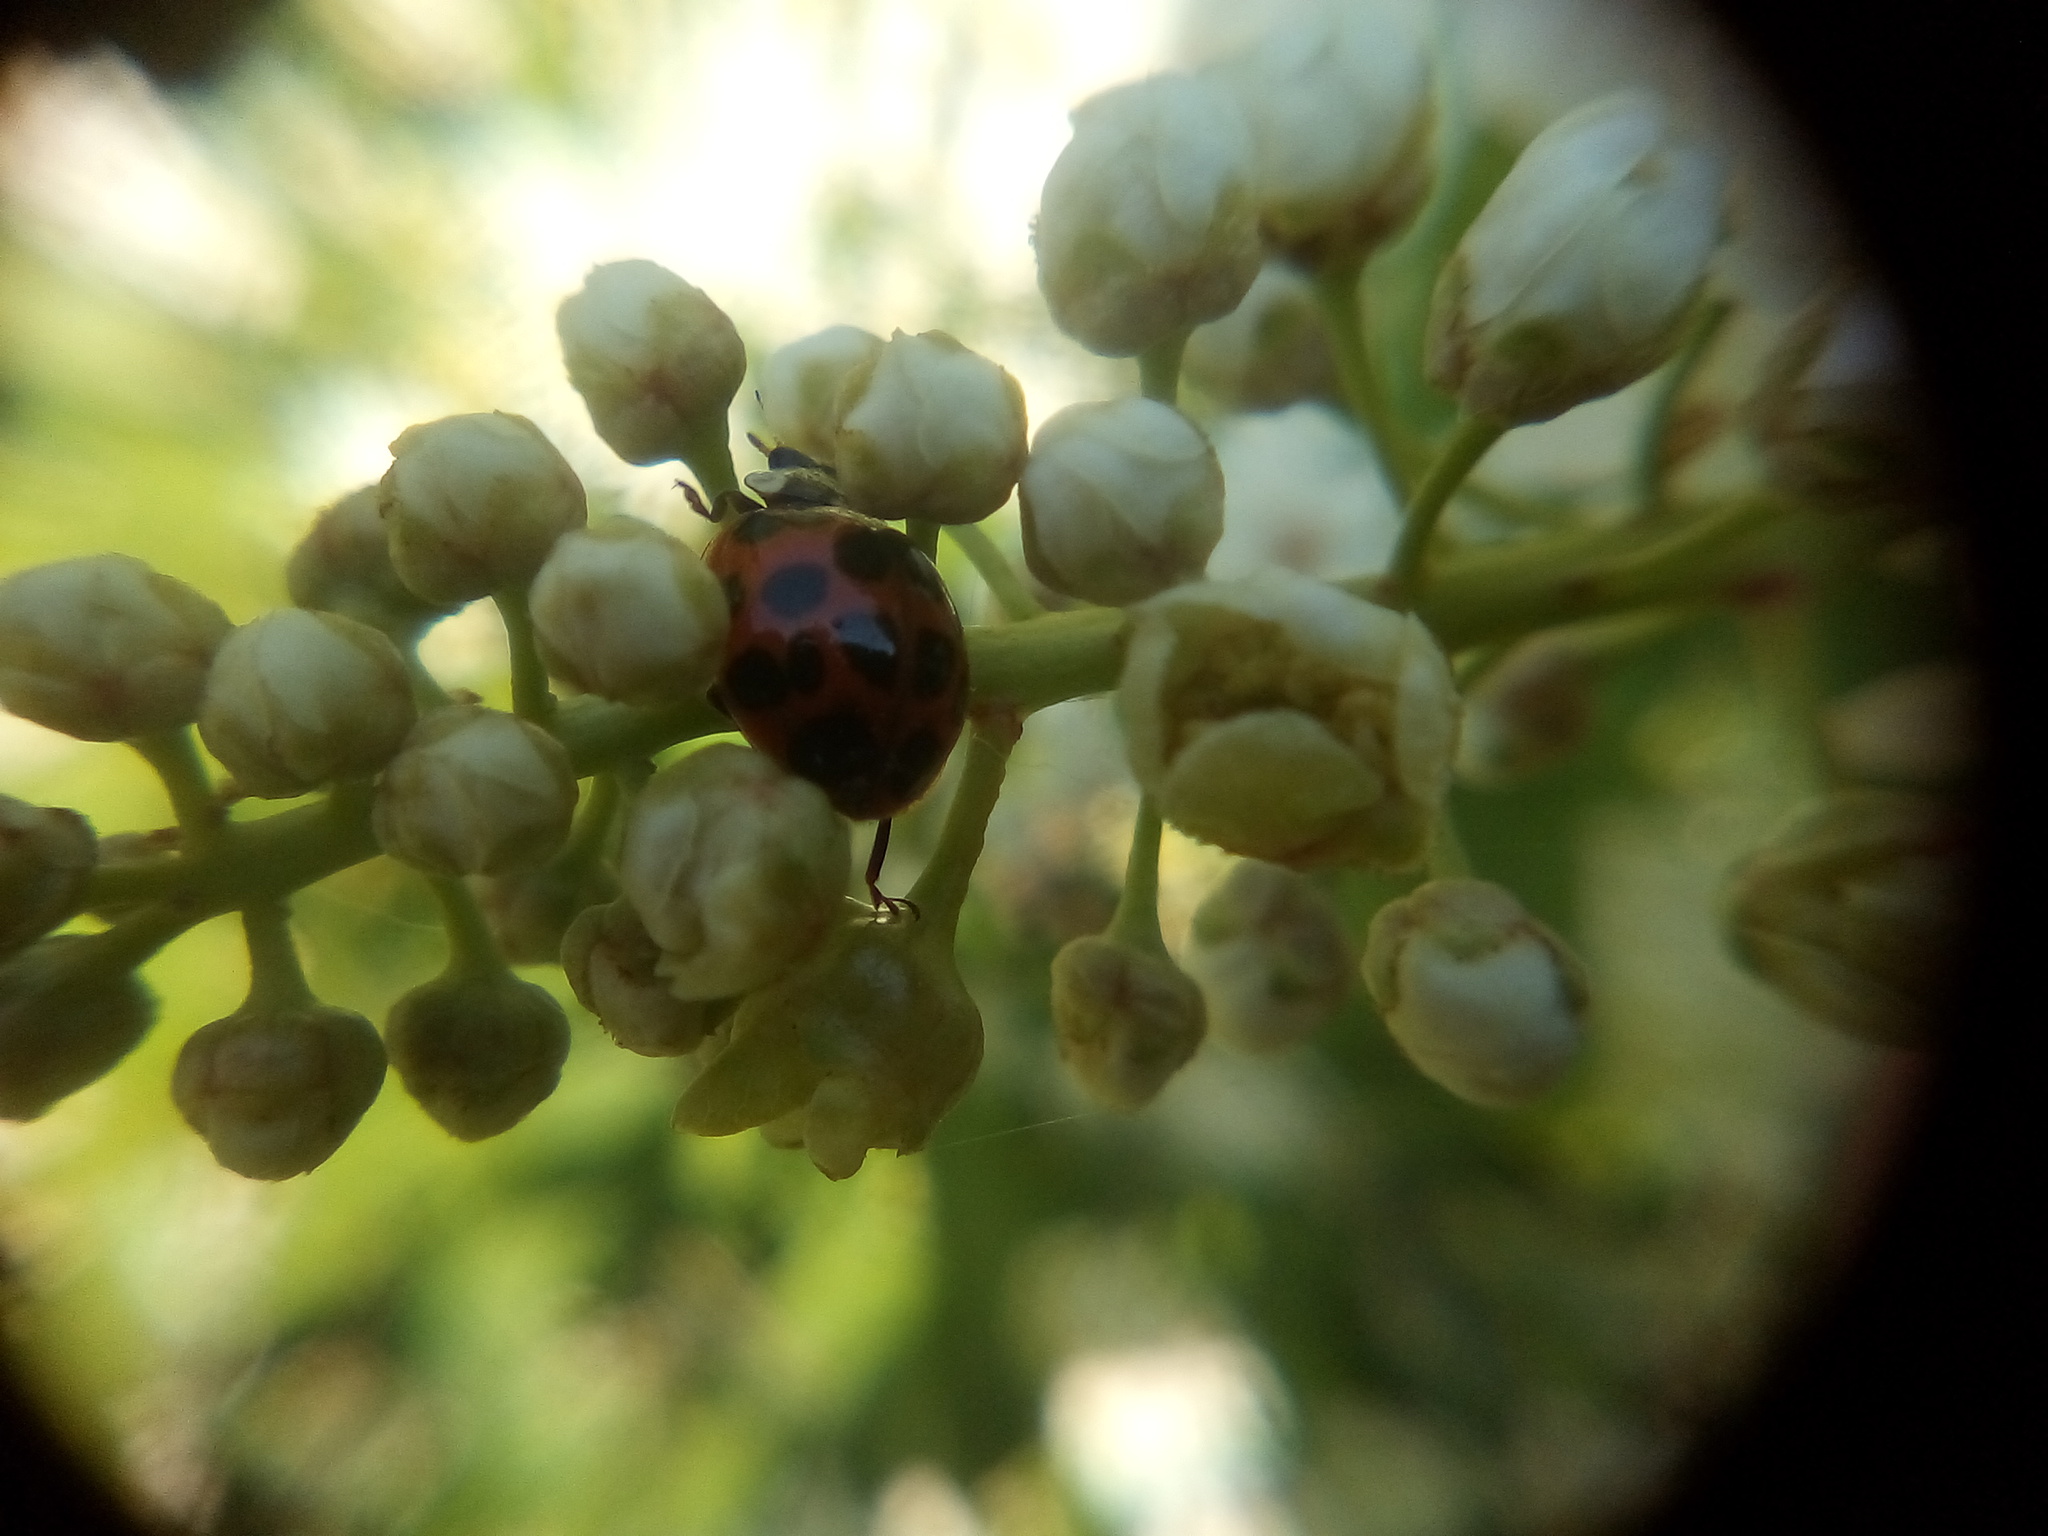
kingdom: Animalia
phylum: Arthropoda
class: Insecta
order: Coleoptera
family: Coccinellidae
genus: Harmonia
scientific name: Harmonia axyridis
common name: Harlequin ladybird
